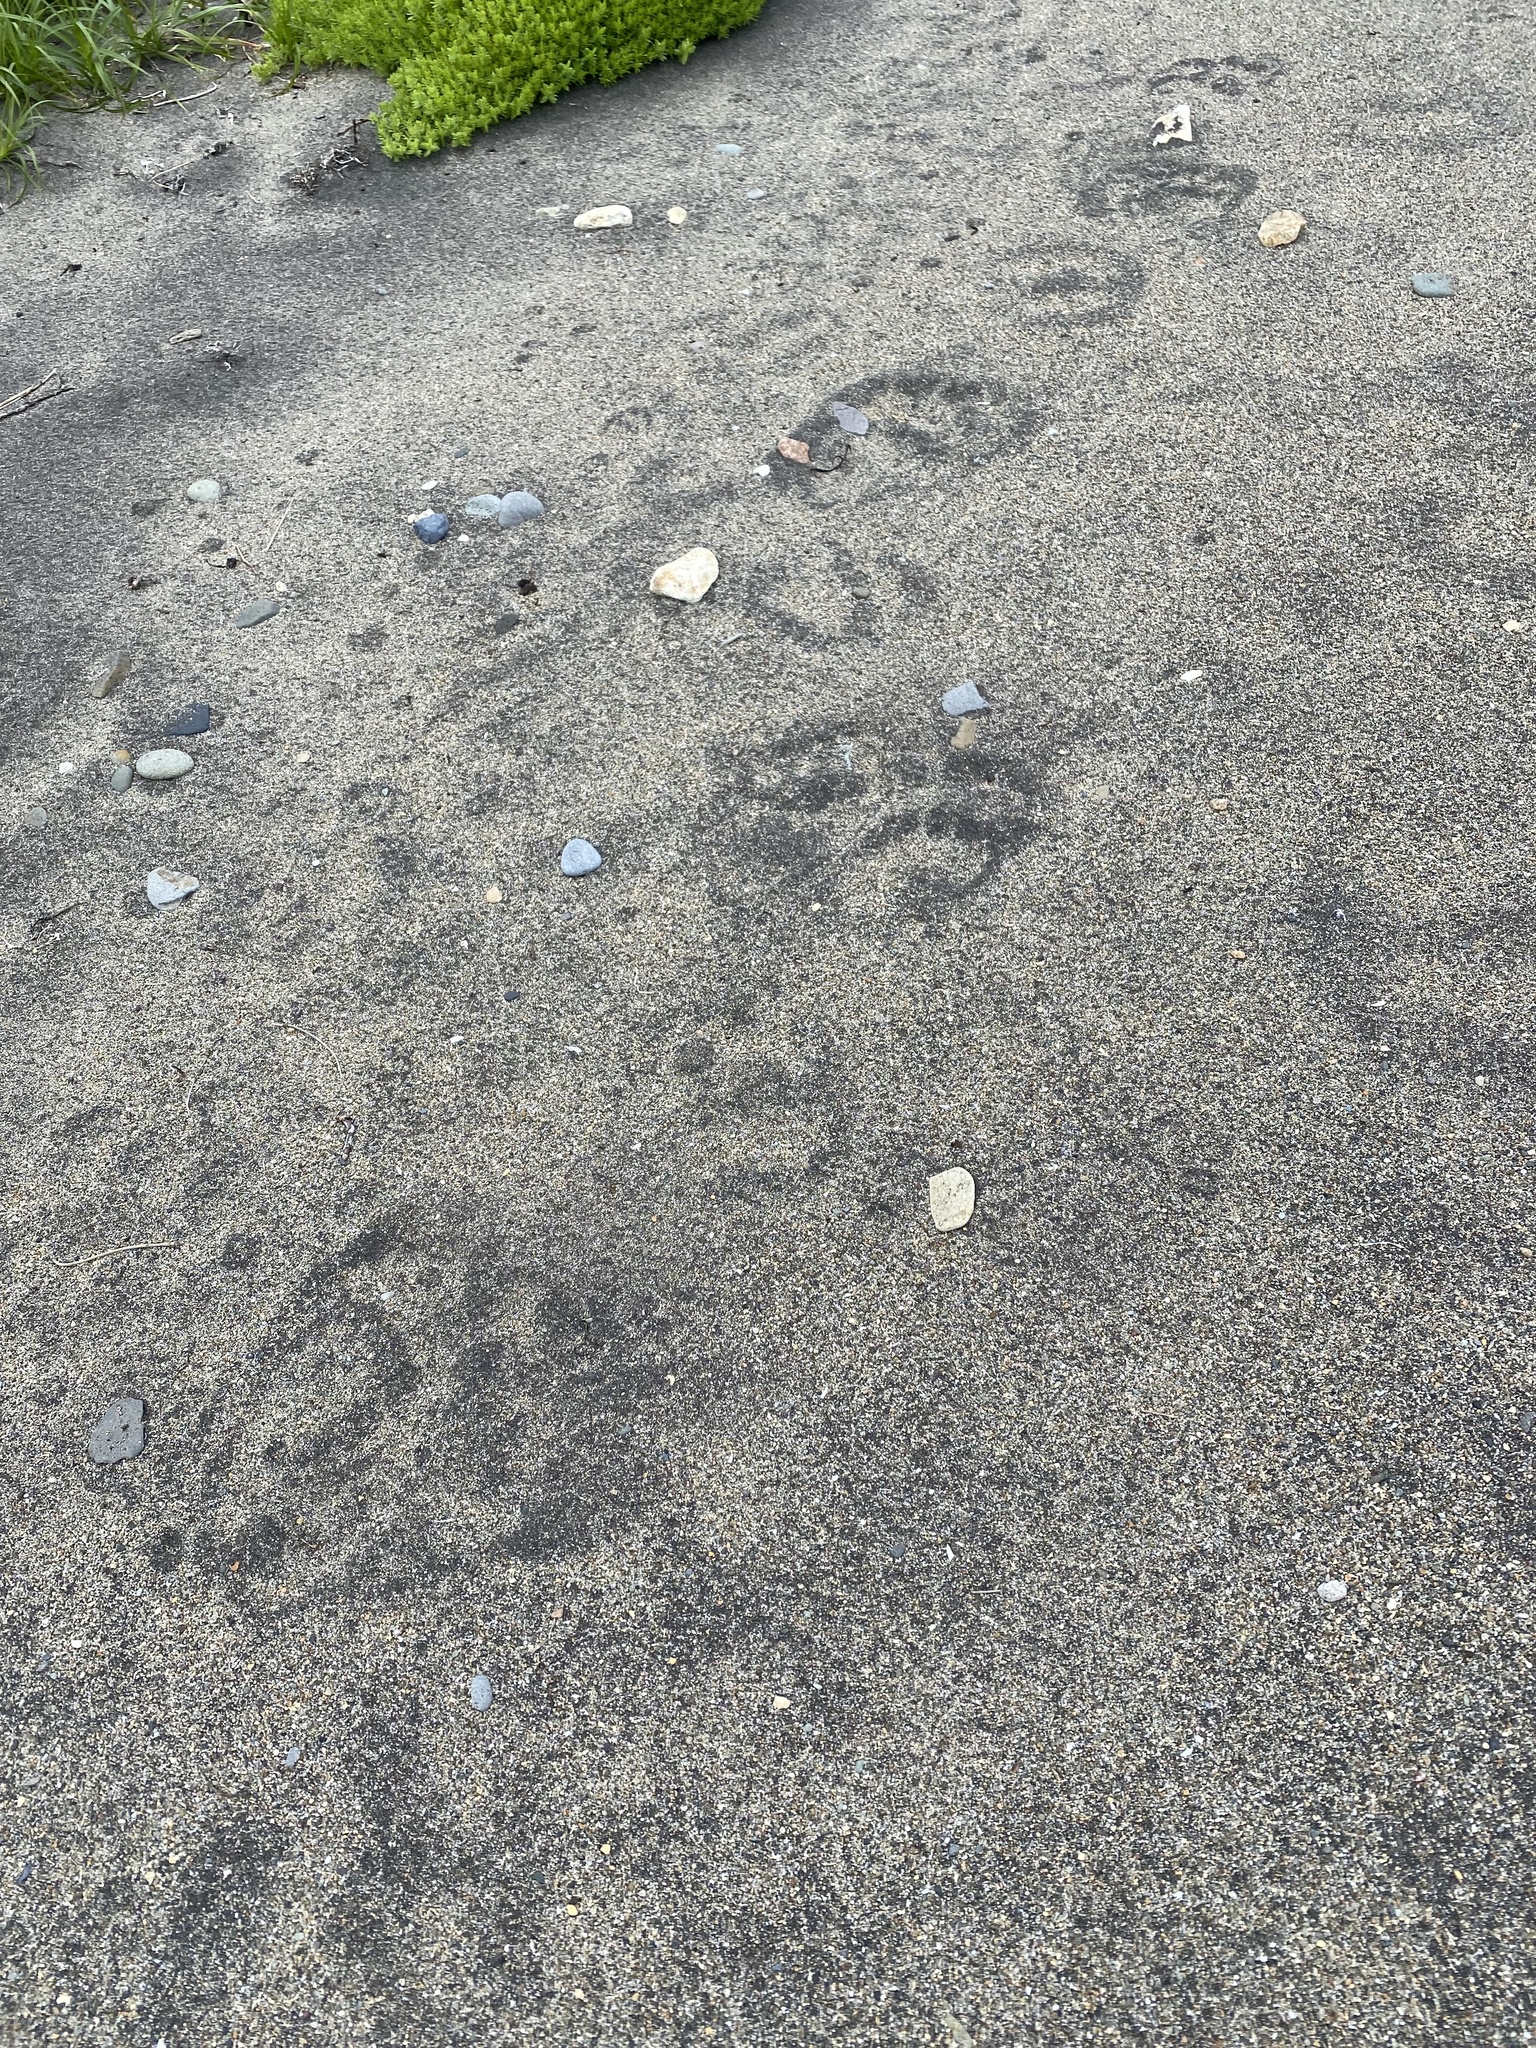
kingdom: Animalia
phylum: Chordata
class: Mammalia
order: Carnivora
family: Ursidae
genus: Ursus
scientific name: Ursus arctos
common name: Brown bear
